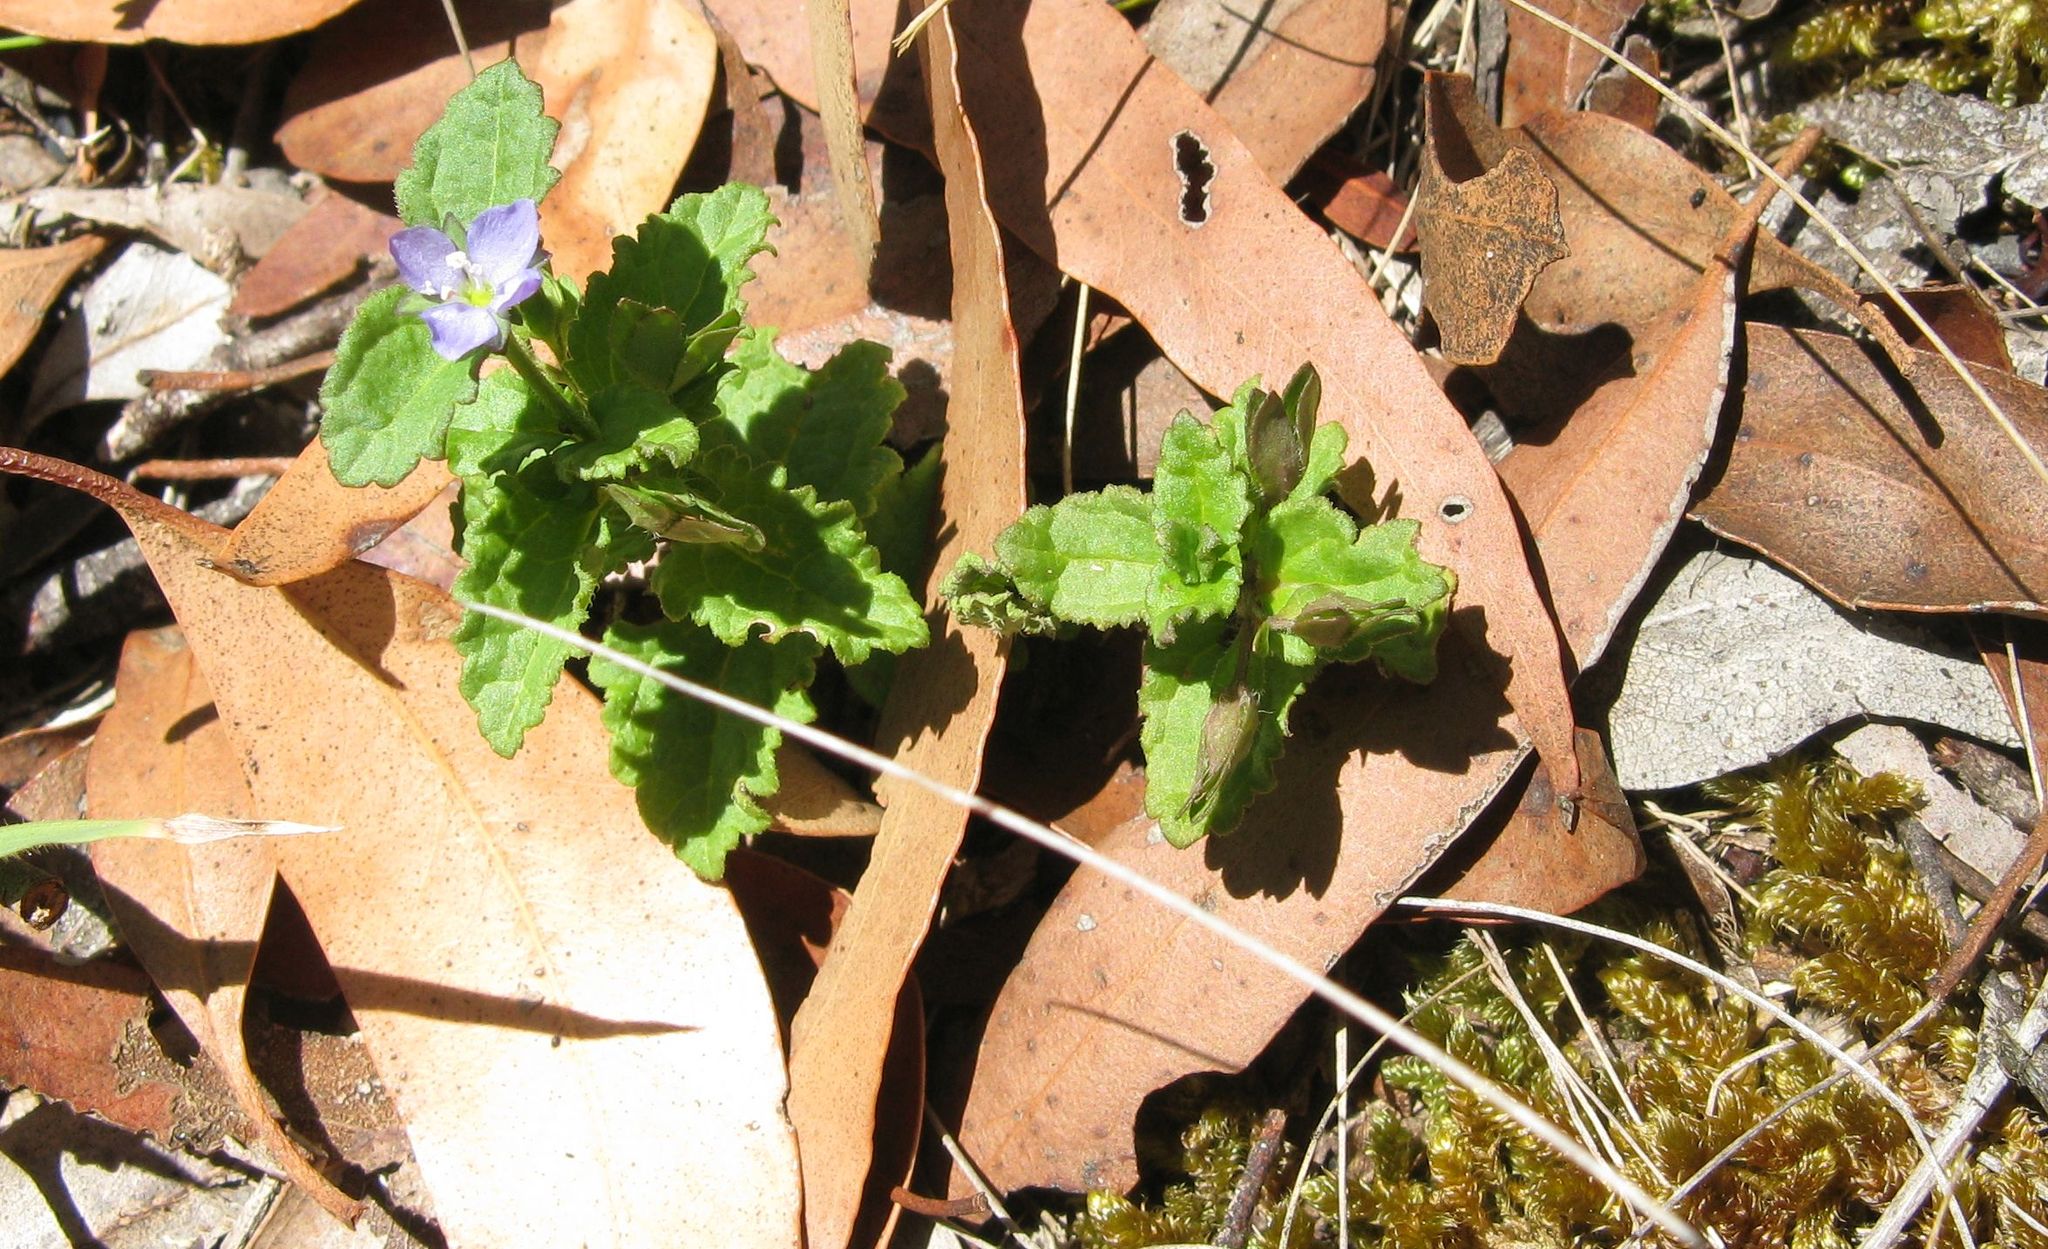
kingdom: Plantae
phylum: Tracheophyta
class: Magnoliopsida
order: Lamiales
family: Plantaginaceae
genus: Veronica
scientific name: Veronica persica
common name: Common field-speedwell
